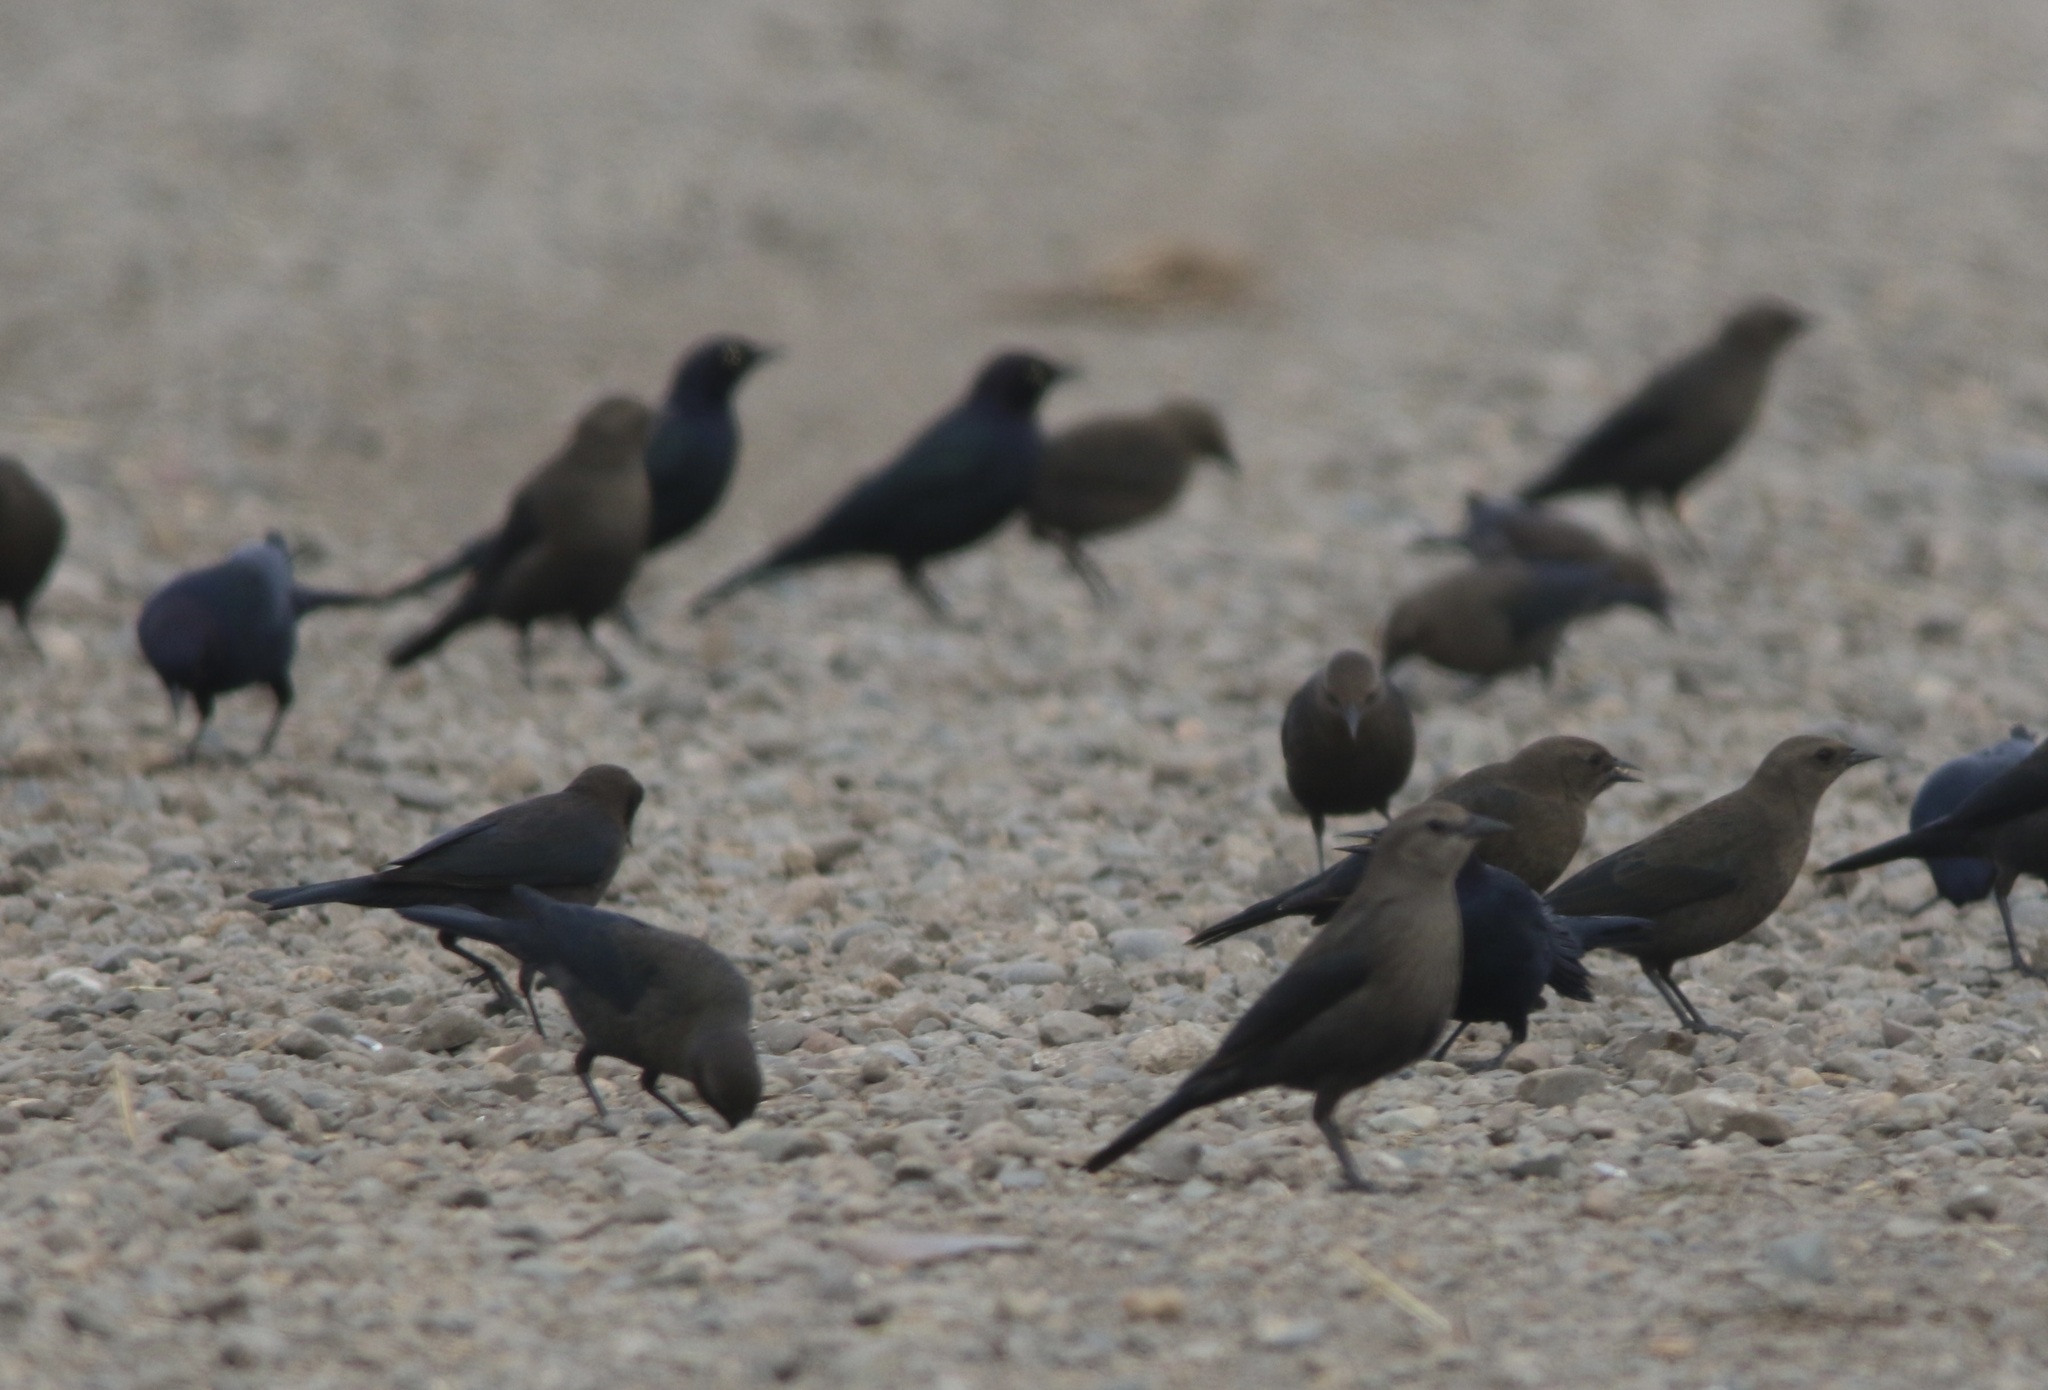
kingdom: Animalia
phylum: Chordata
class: Aves
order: Passeriformes
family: Icteridae
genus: Euphagus
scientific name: Euphagus cyanocephalus
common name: Brewer's blackbird
